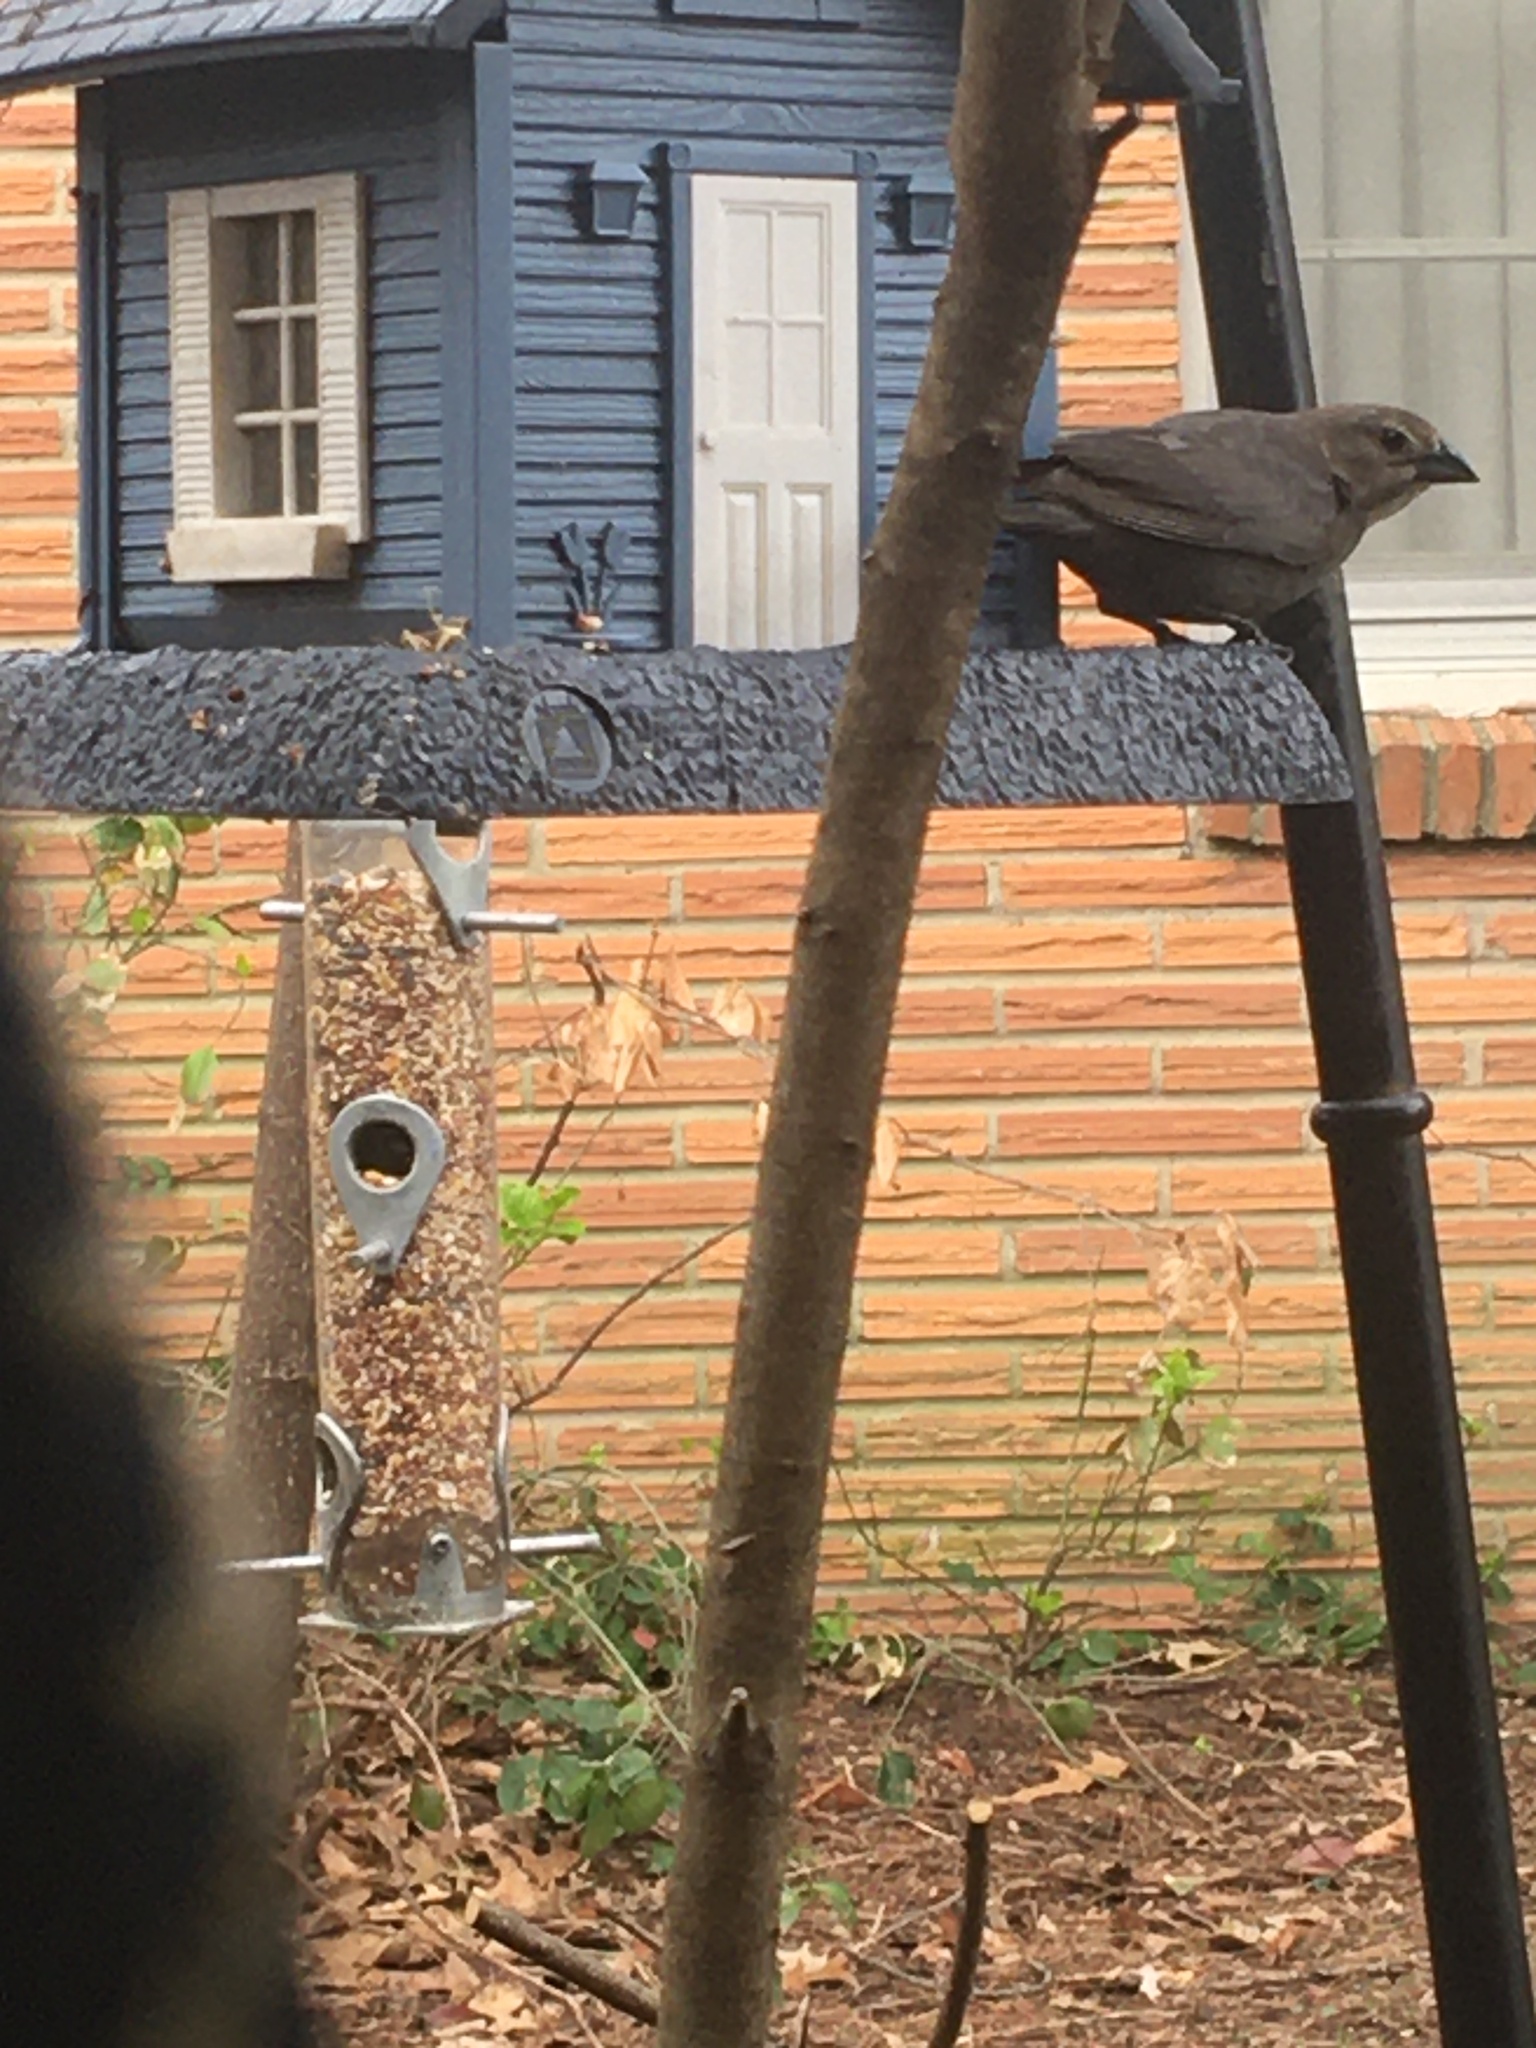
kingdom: Animalia
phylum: Chordata
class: Aves
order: Passeriformes
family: Icteridae
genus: Molothrus
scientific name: Molothrus ater
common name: Brown-headed cowbird
